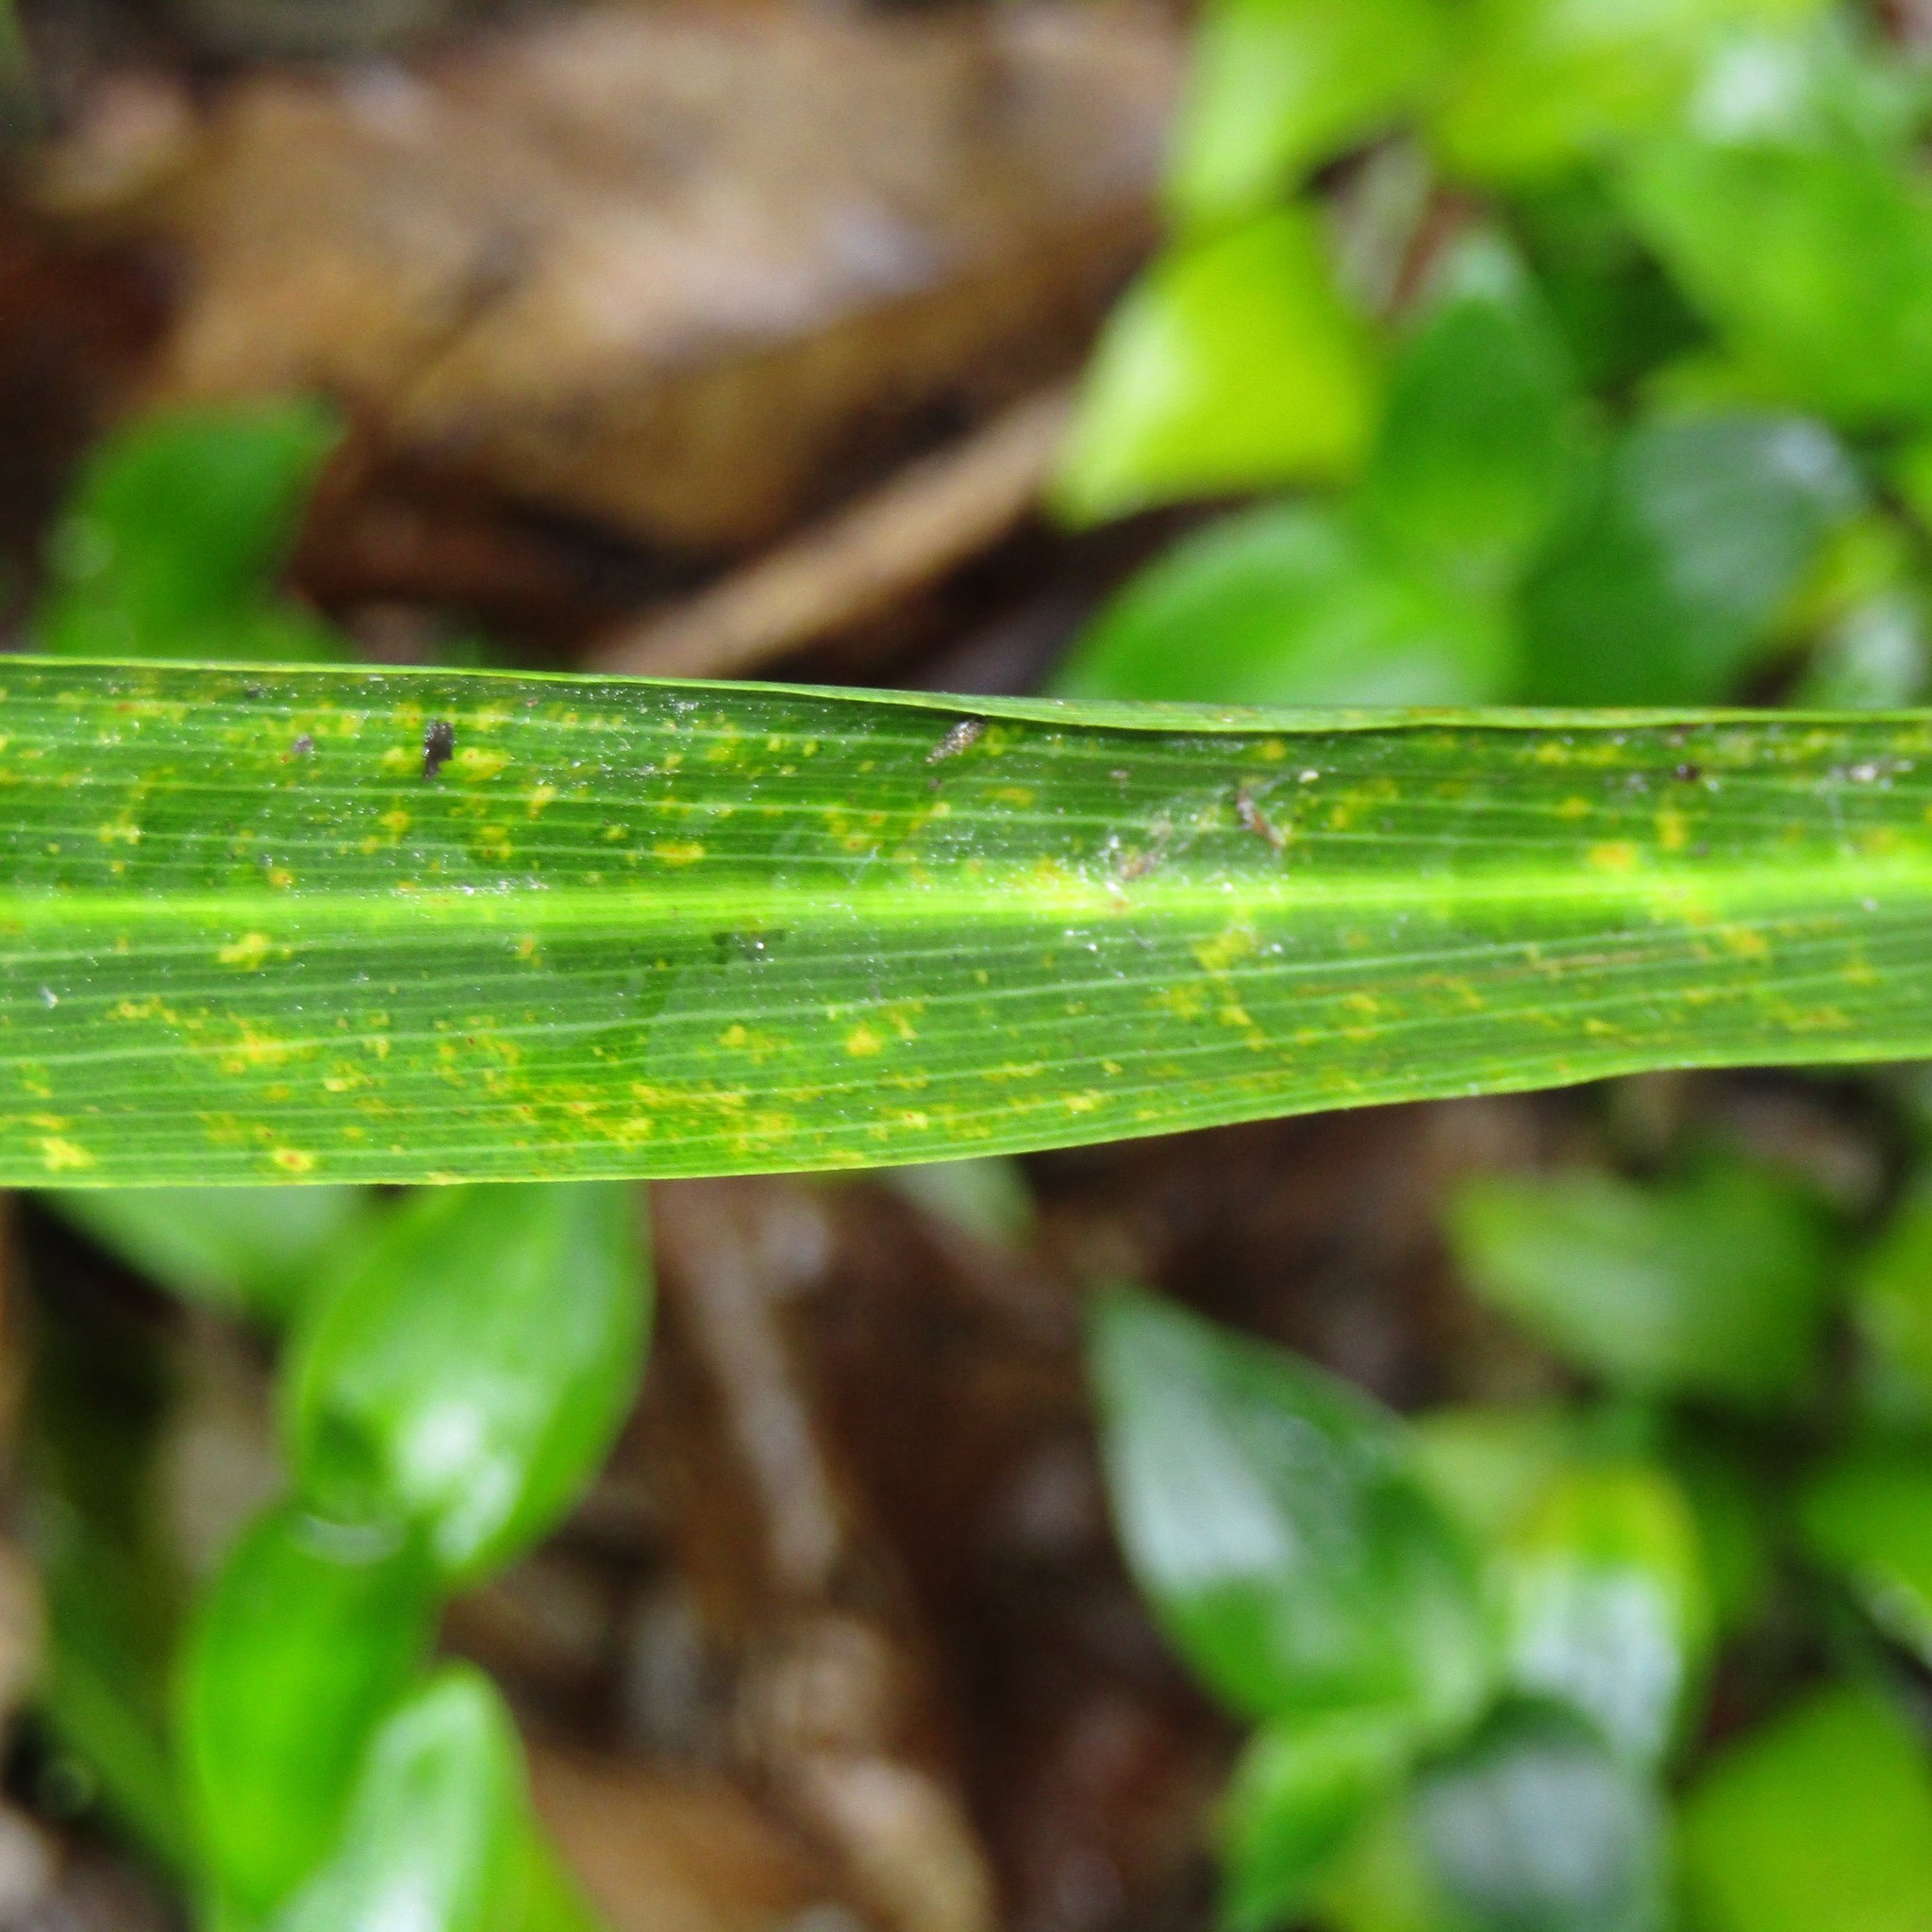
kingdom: Plantae
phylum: Tracheophyta
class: Liliopsida
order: Asparagales
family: Asparagaceae
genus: Cordyline
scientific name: Cordyline australis
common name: Cabbage-palm
